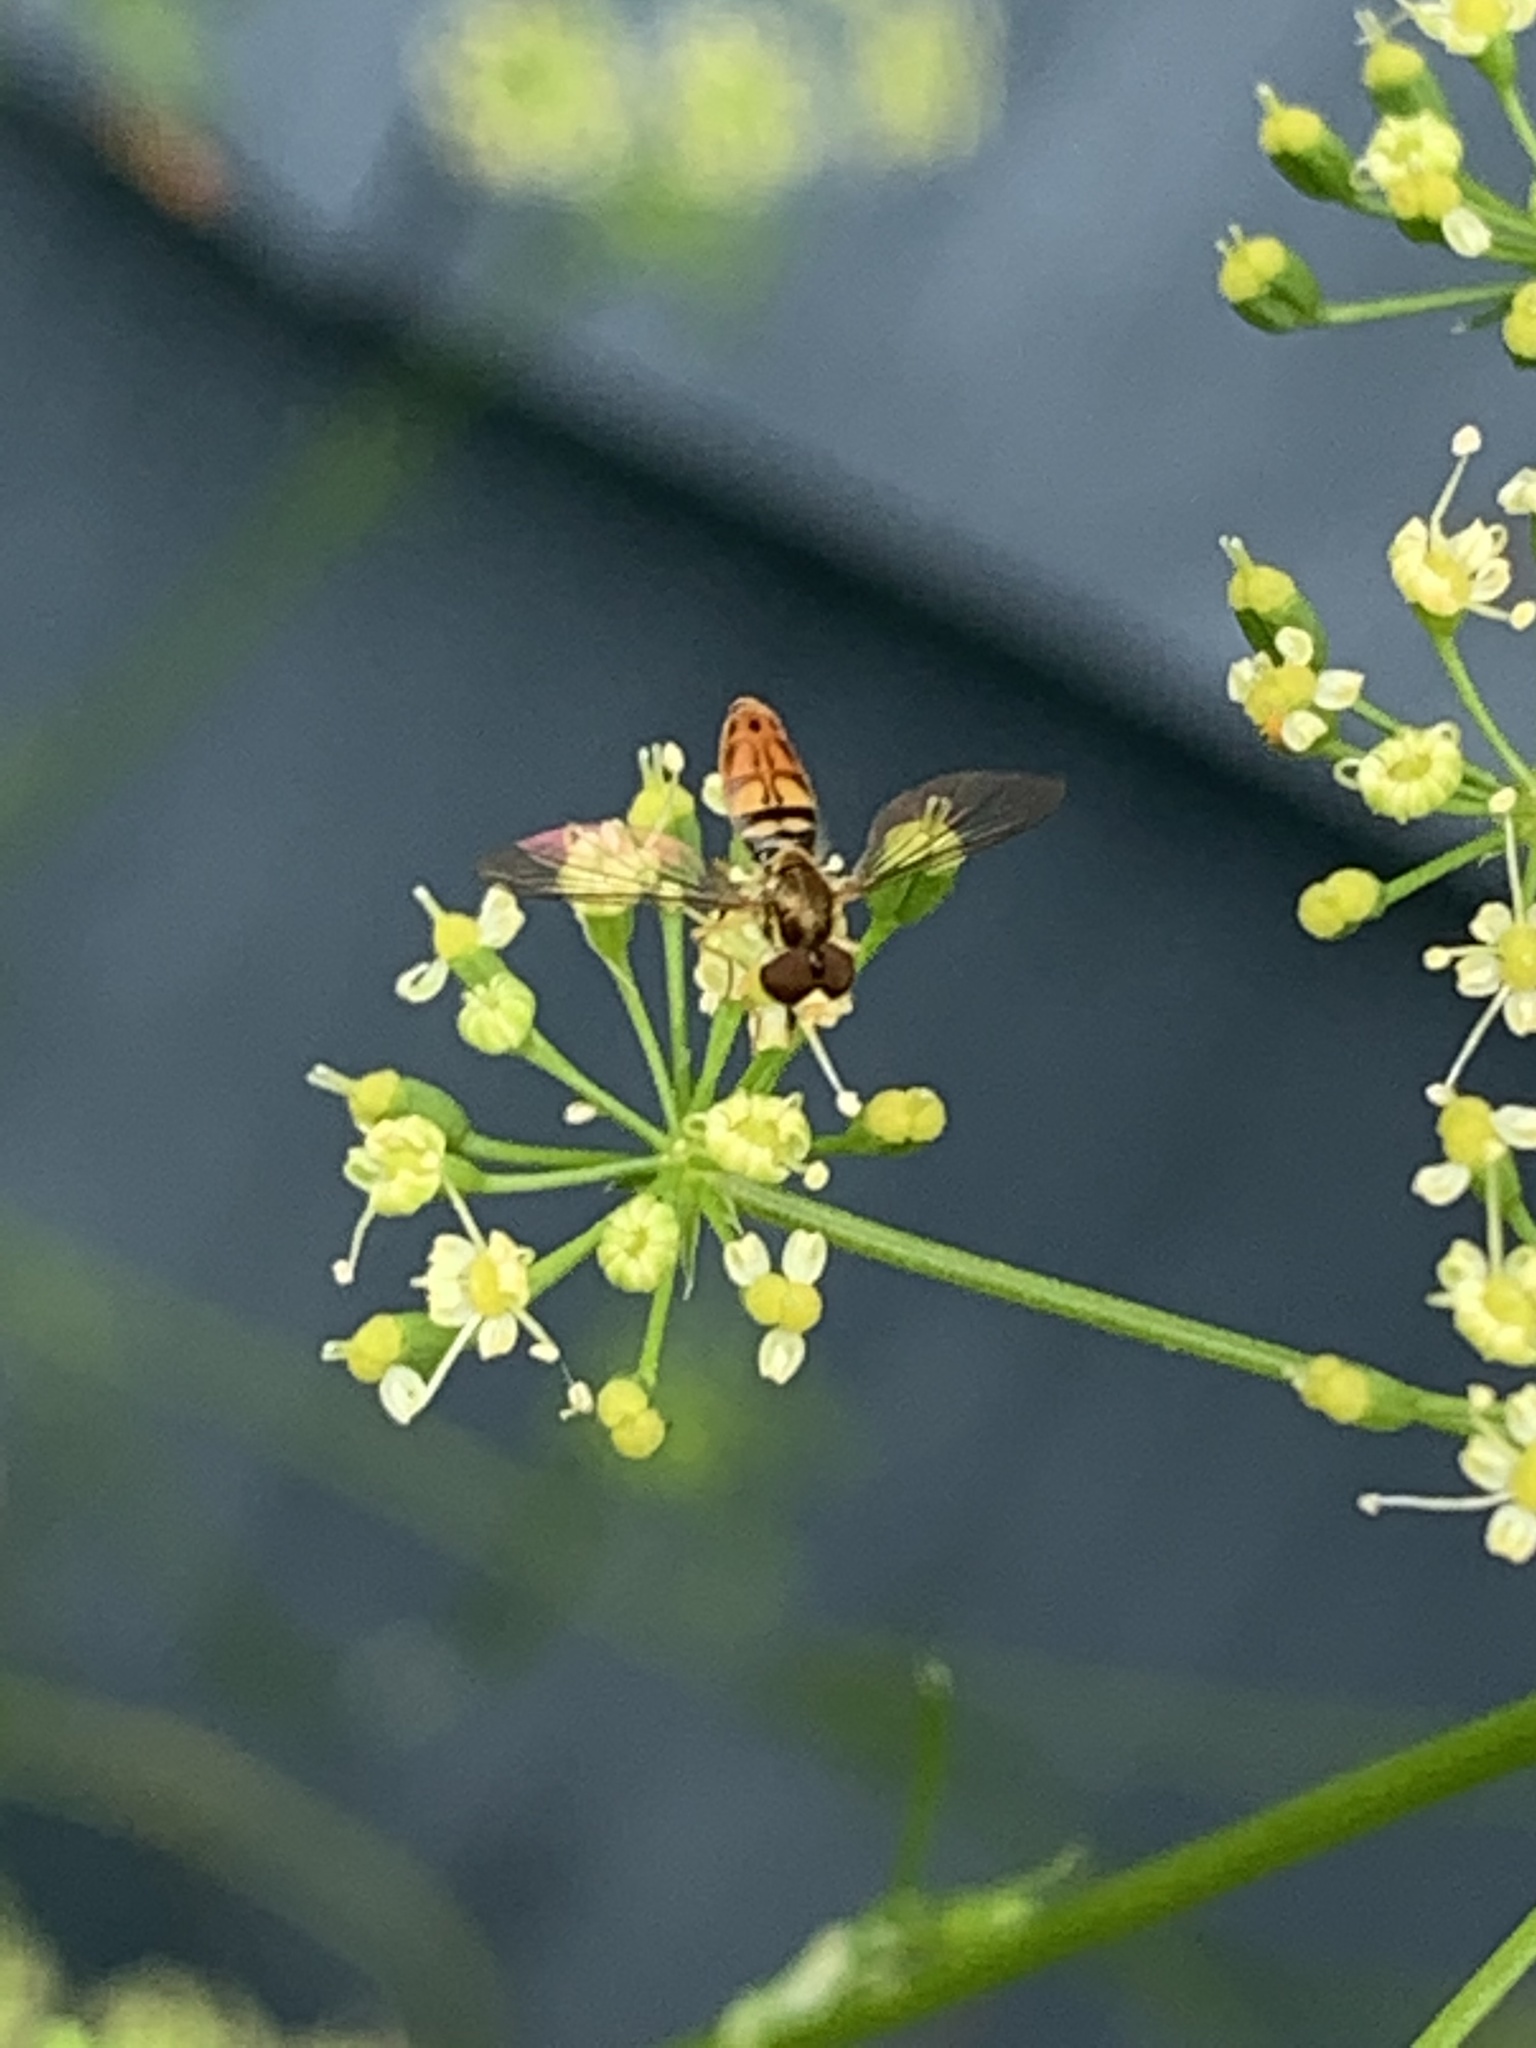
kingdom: Animalia
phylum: Arthropoda
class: Insecta
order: Diptera
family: Syrphidae
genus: Toxomerus
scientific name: Toxomerus marginatus
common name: Syrphid fly
